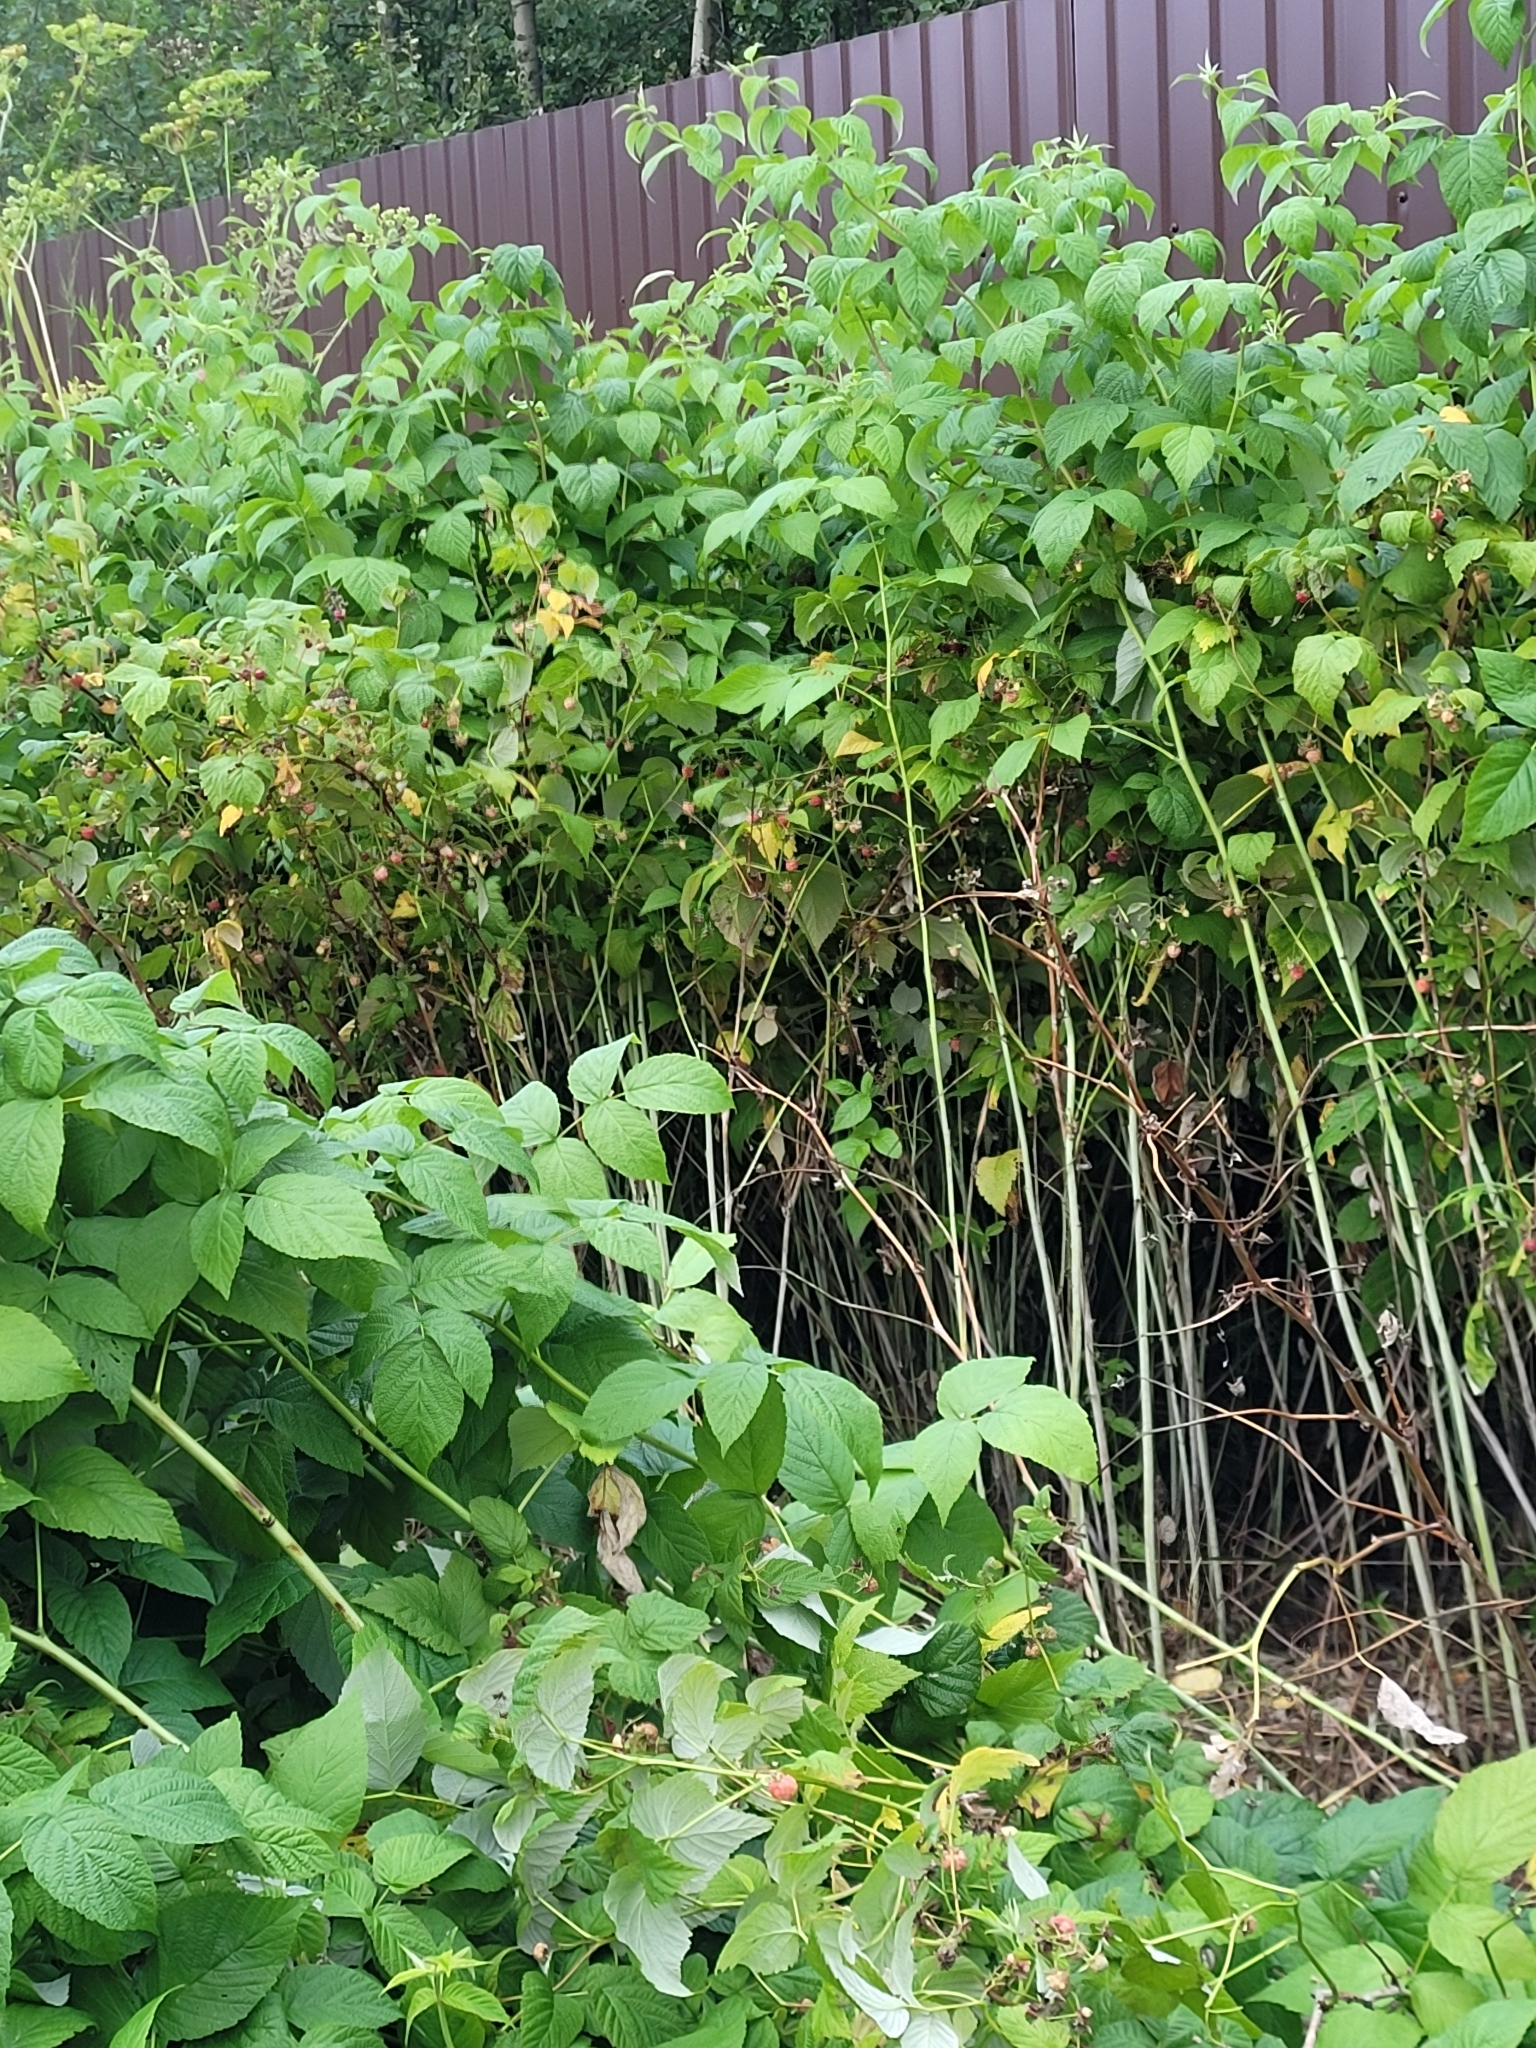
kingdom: Plantae
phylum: Tracheophyta
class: Magnoliopsida
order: Rosales
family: Rosaceae
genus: Rubus
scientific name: Rubus idaeus
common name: Raspberry
